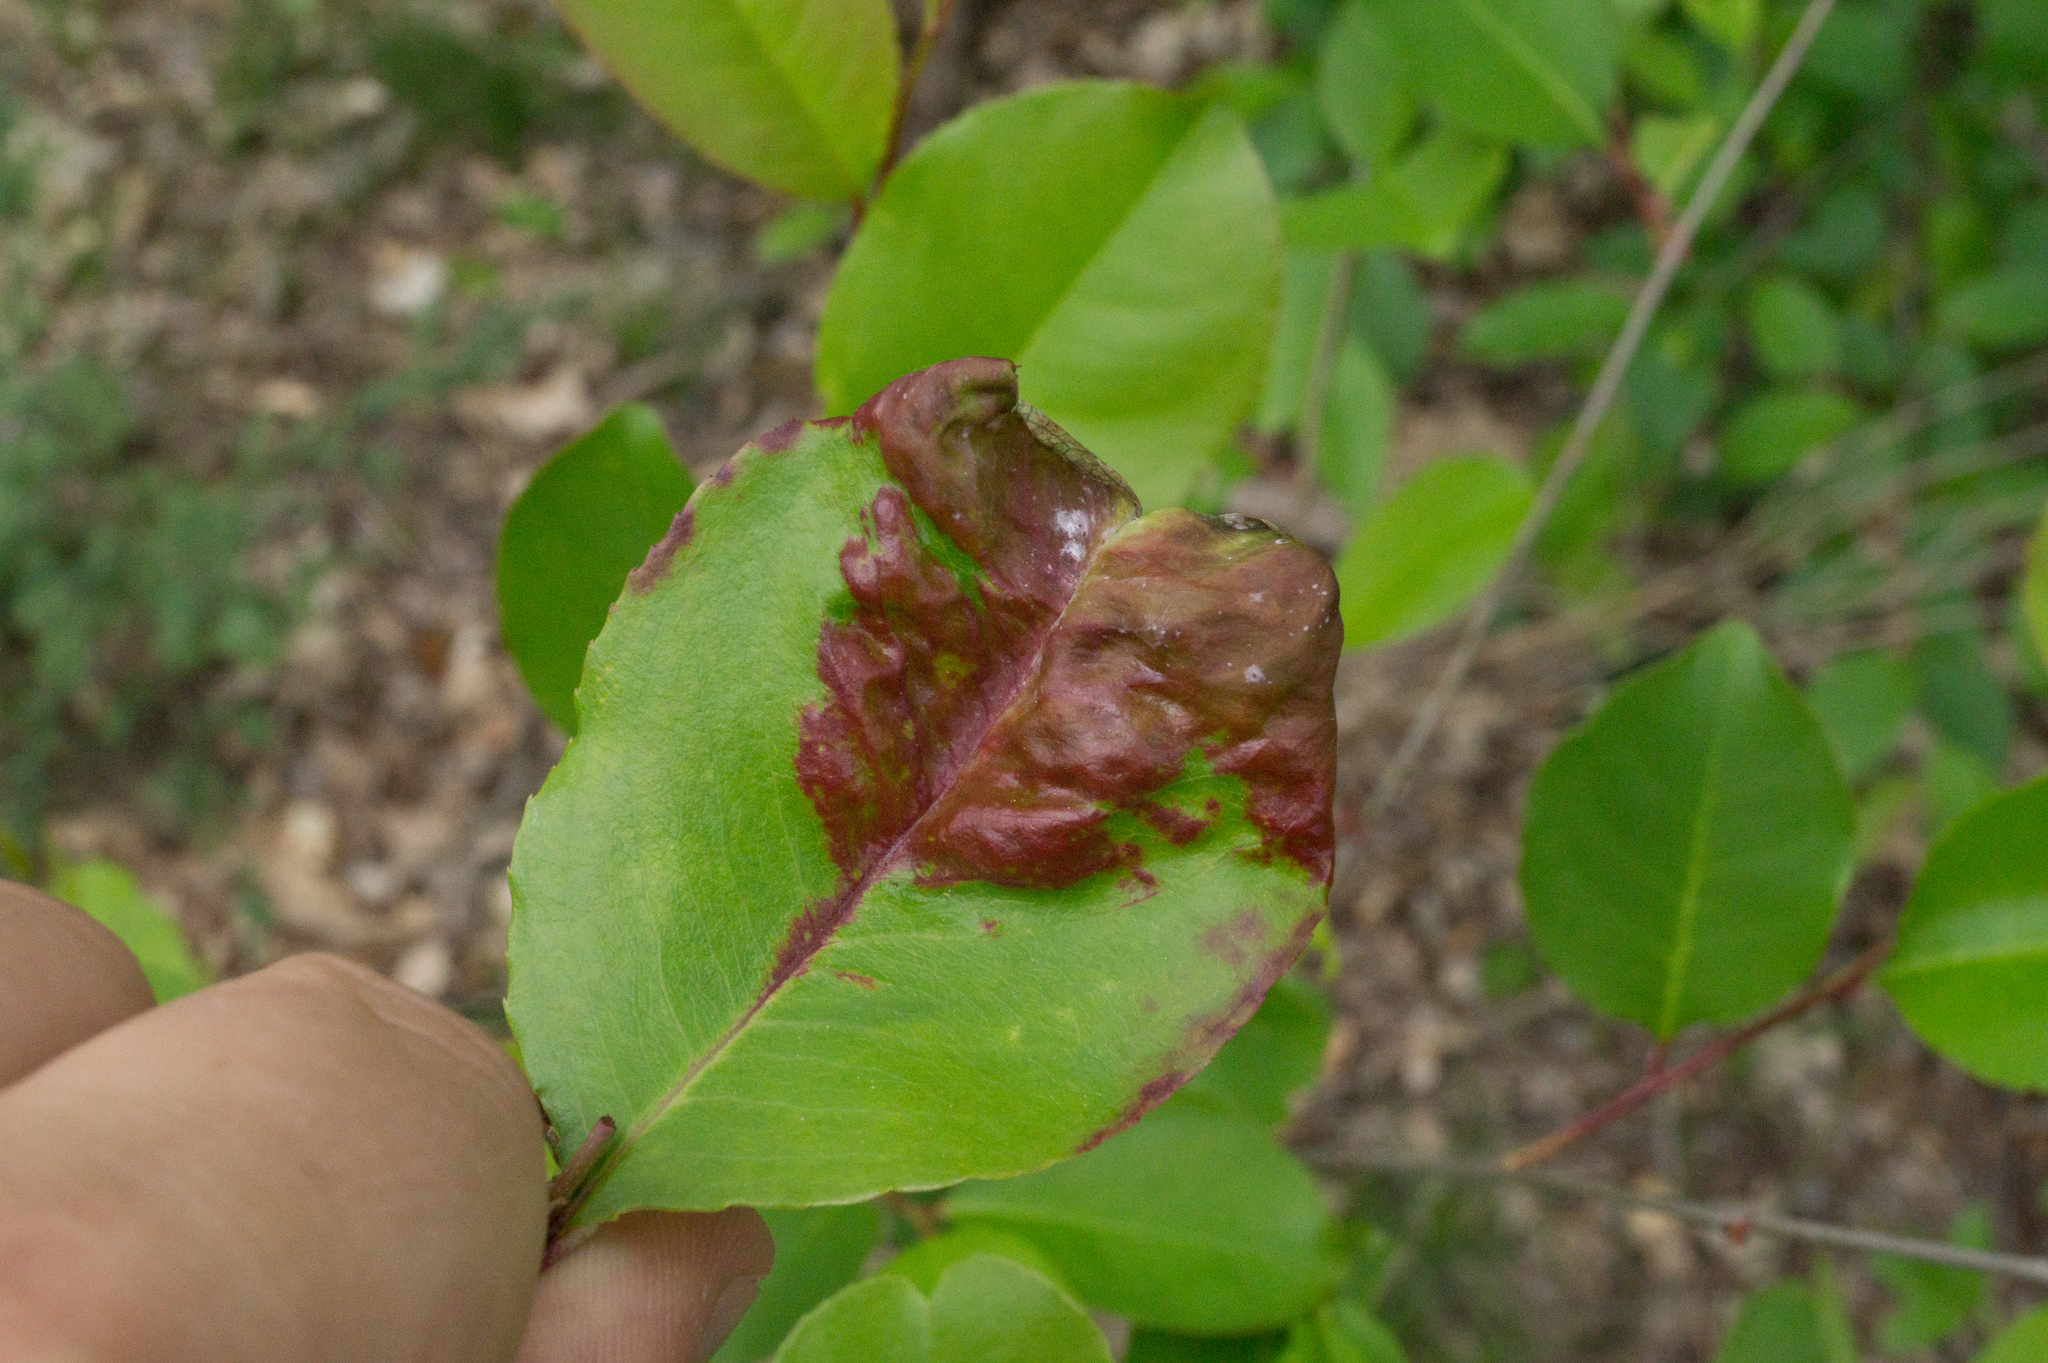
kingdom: Fungi
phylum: Ascomycota
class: Taphrinomycetes
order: Taphrinales
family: Taphrinaceae
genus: Taphrina
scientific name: Taphrina farlowii
